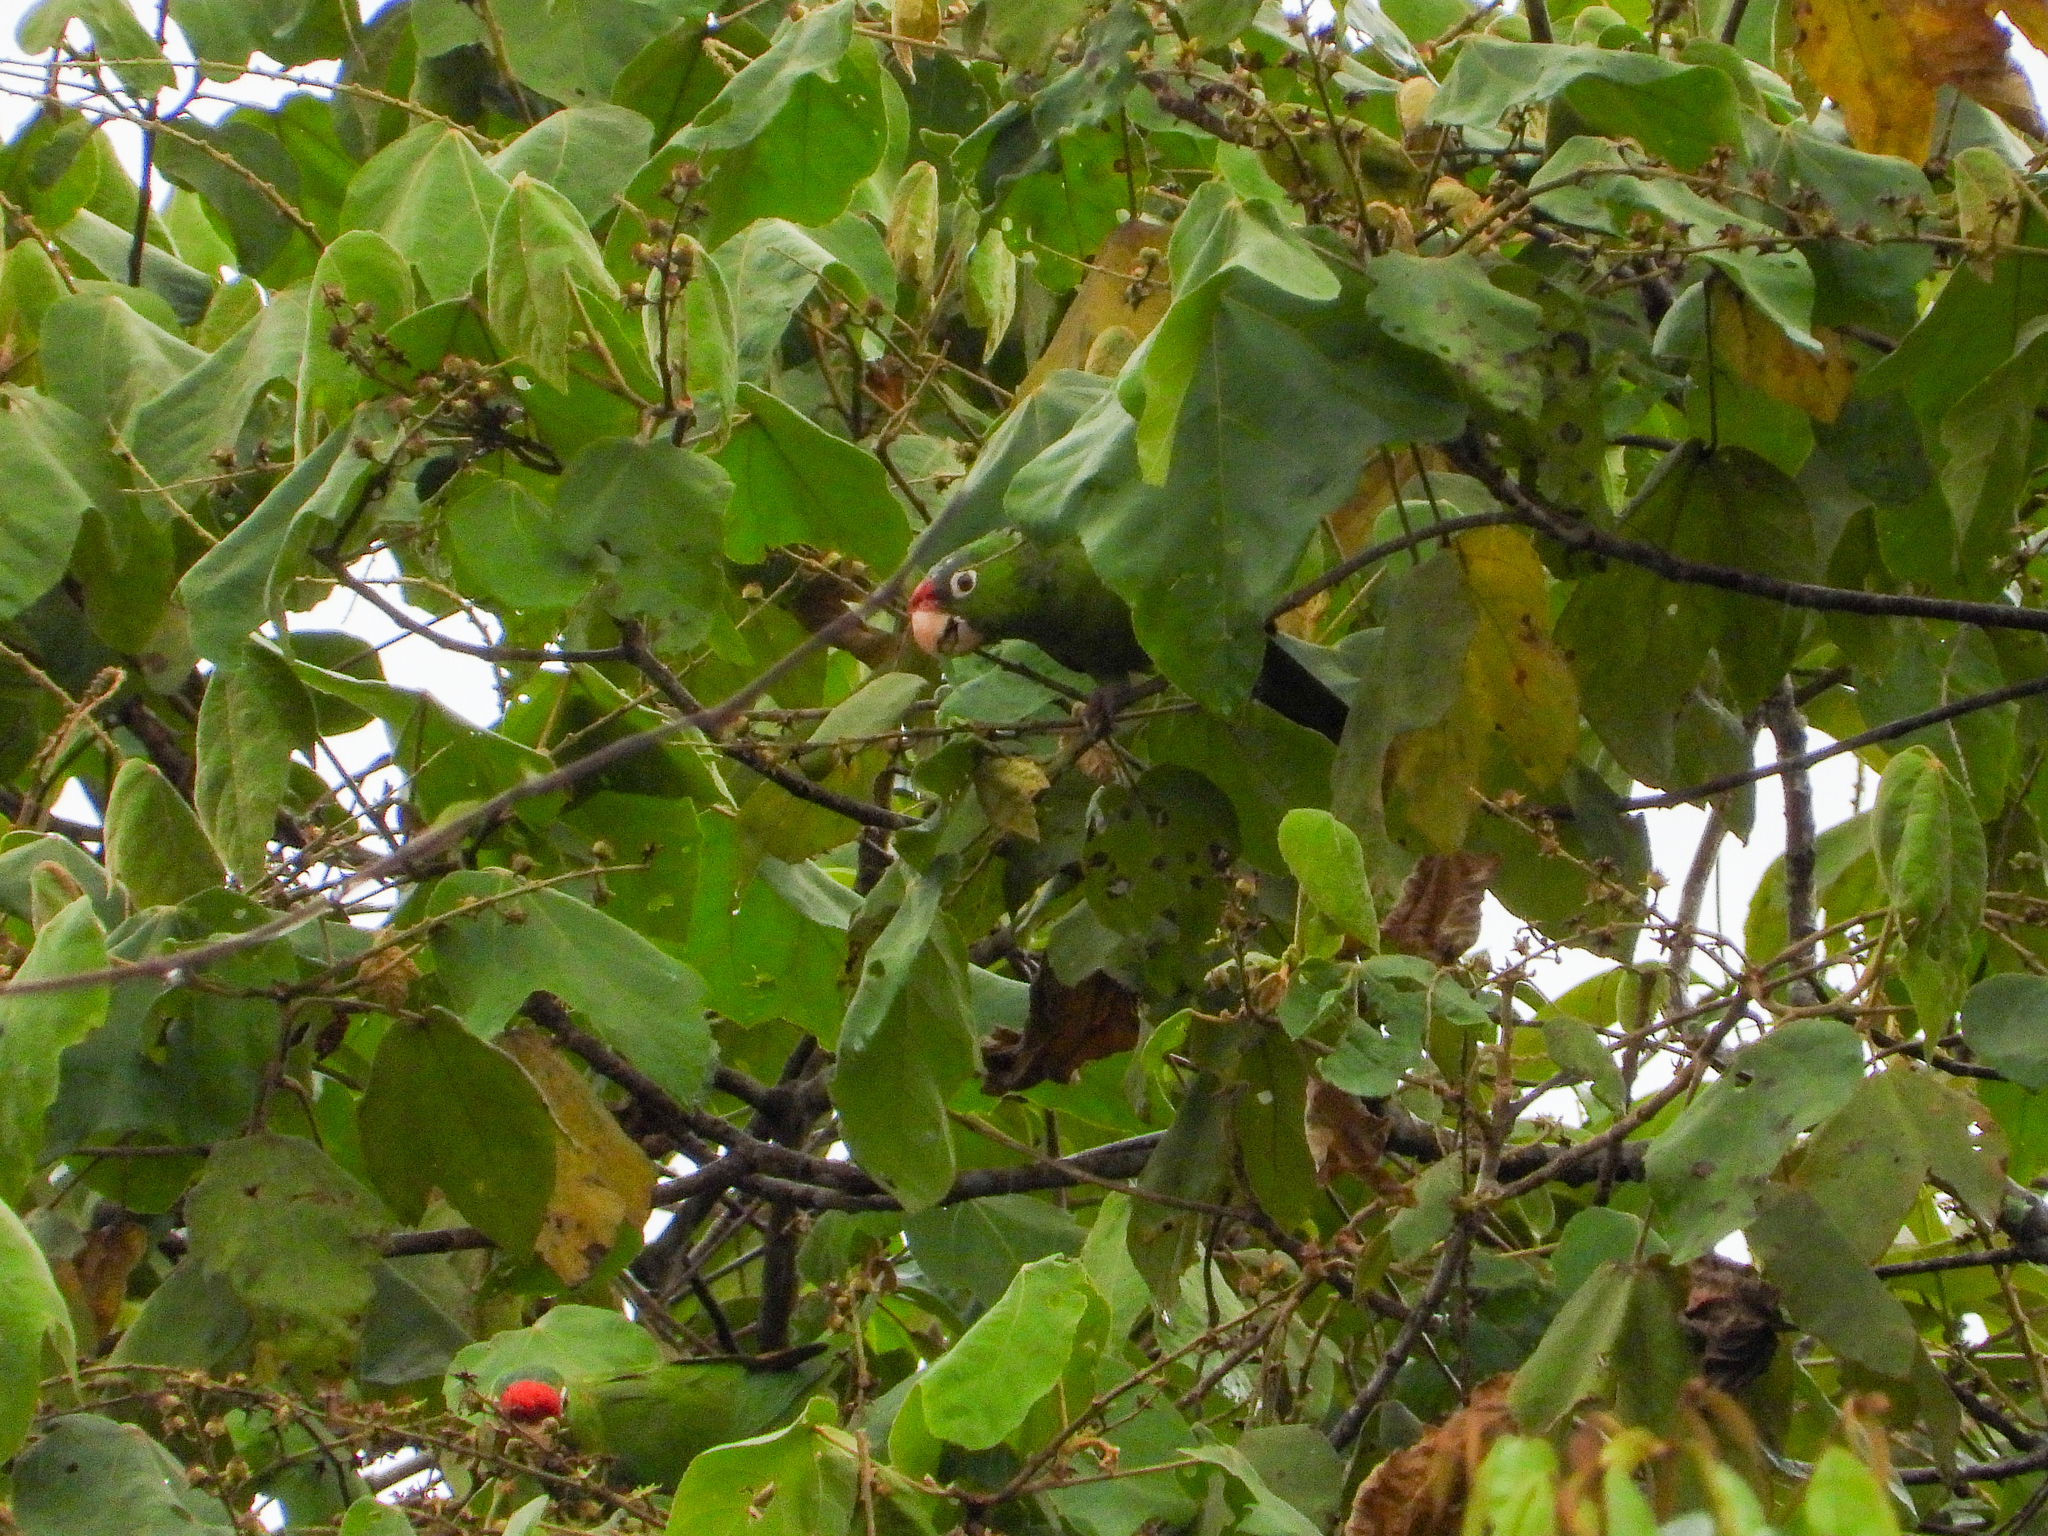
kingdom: Animalia
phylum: Chordata
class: Aves
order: Psittaciformes
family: Psittacidae
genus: Aratinga
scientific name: Aratinga finschi
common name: Crimson-fronted parakeet
